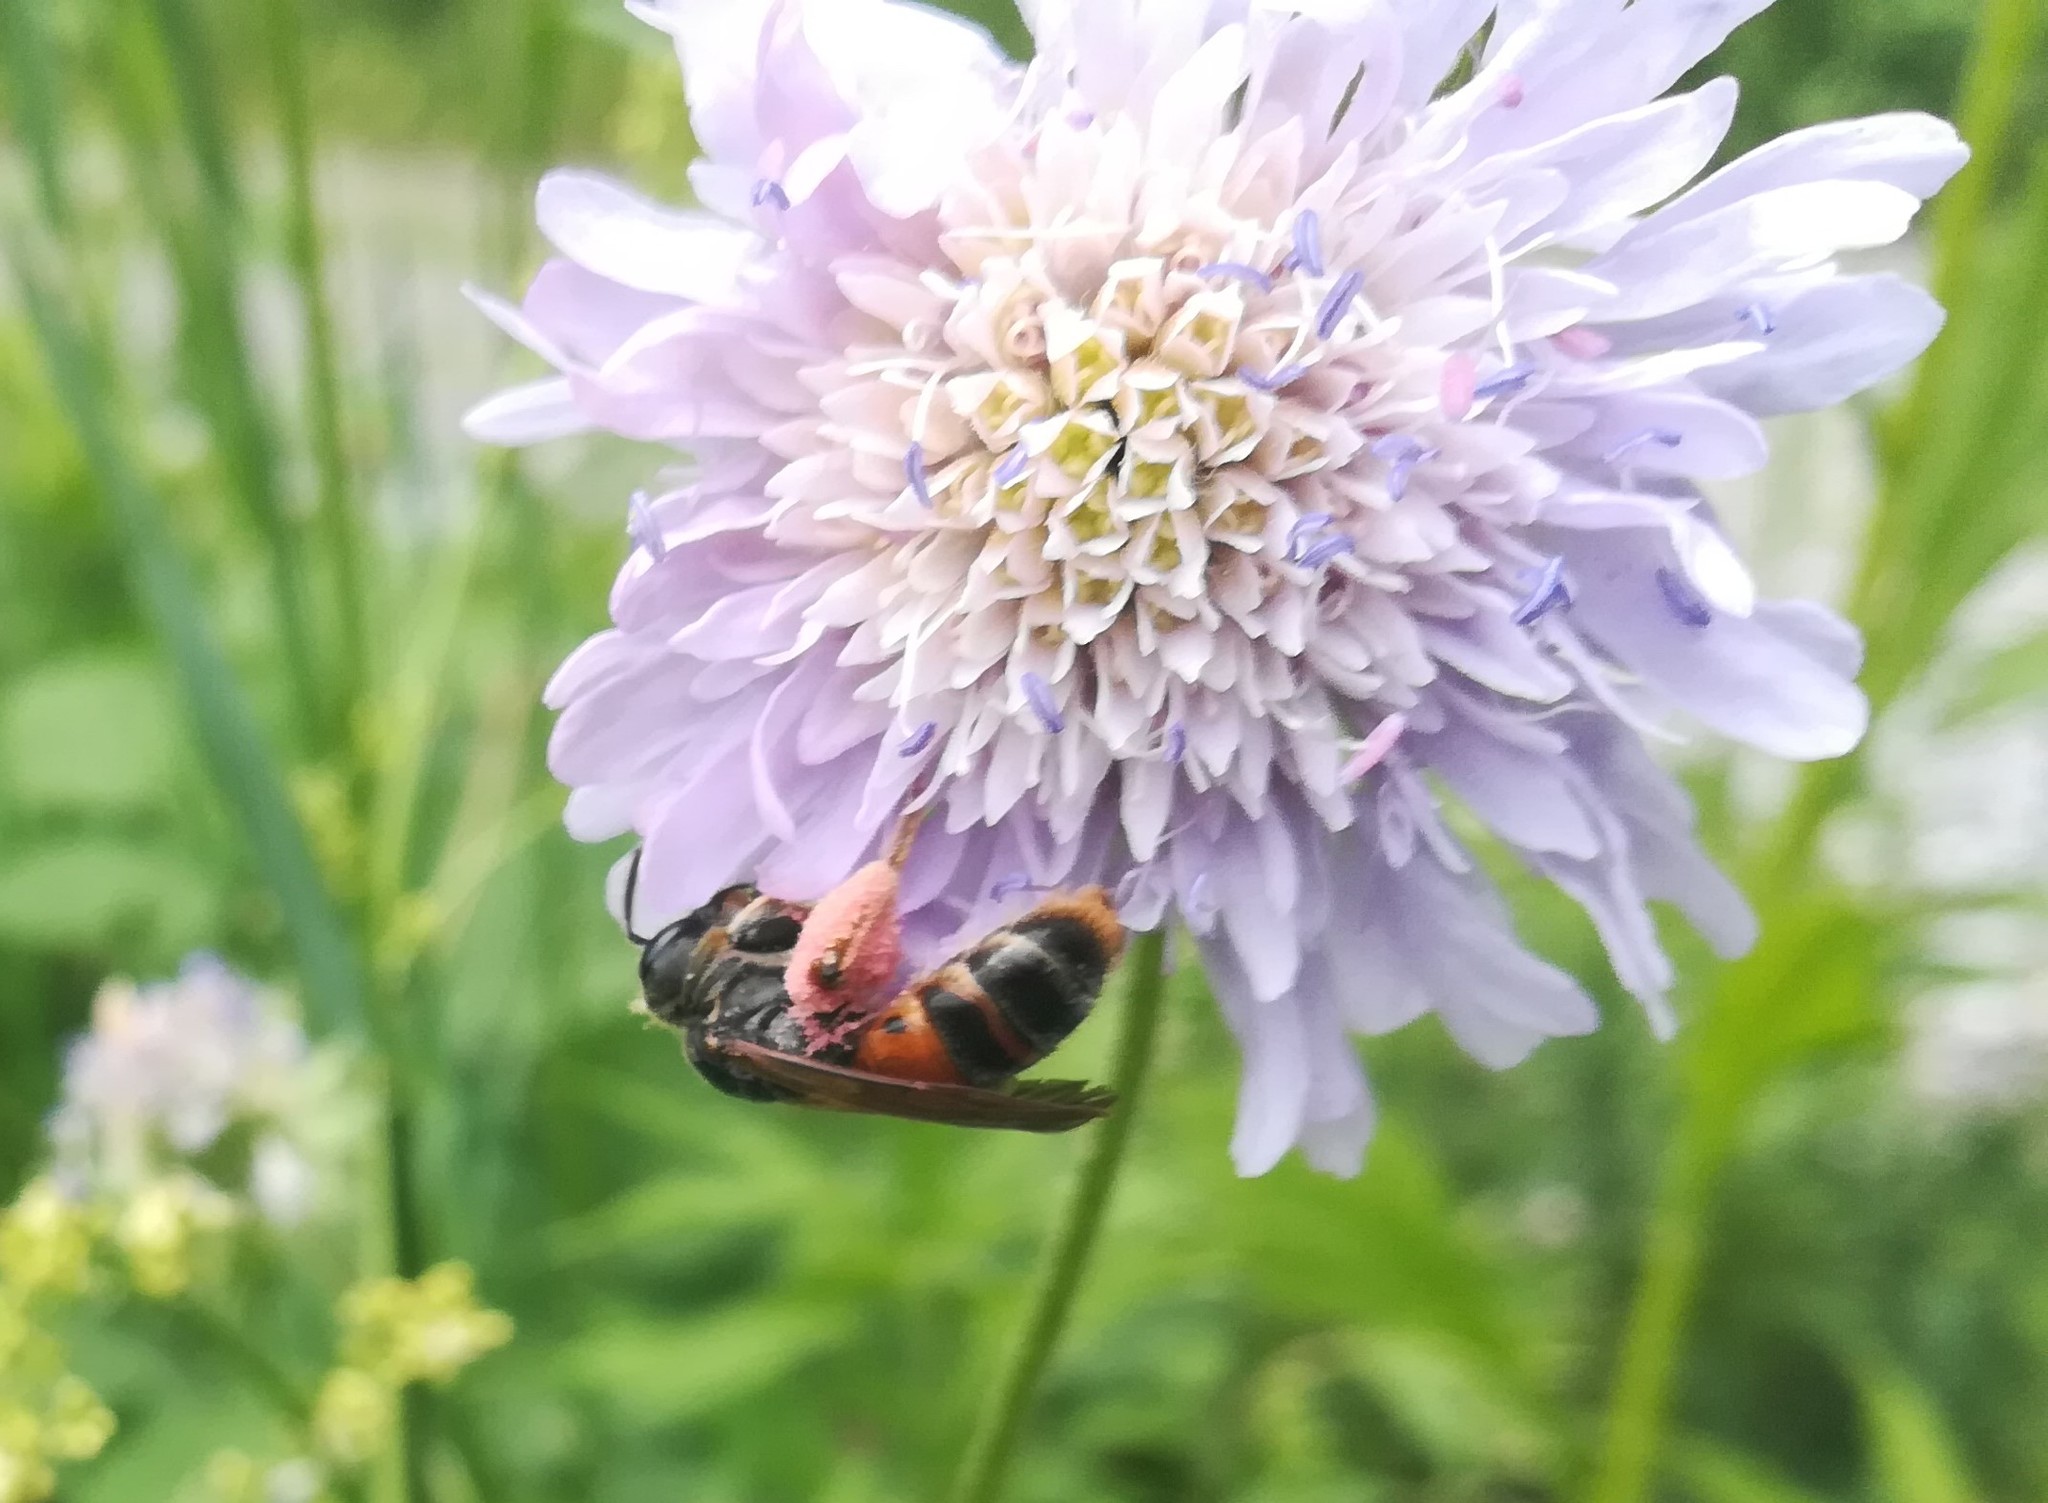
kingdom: Animalia
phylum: Arthropoda
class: Insecta
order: Hymenoptera
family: Andrenidae
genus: Andrena
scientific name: Andrena hattorfiana
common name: Large scabious mining bee
